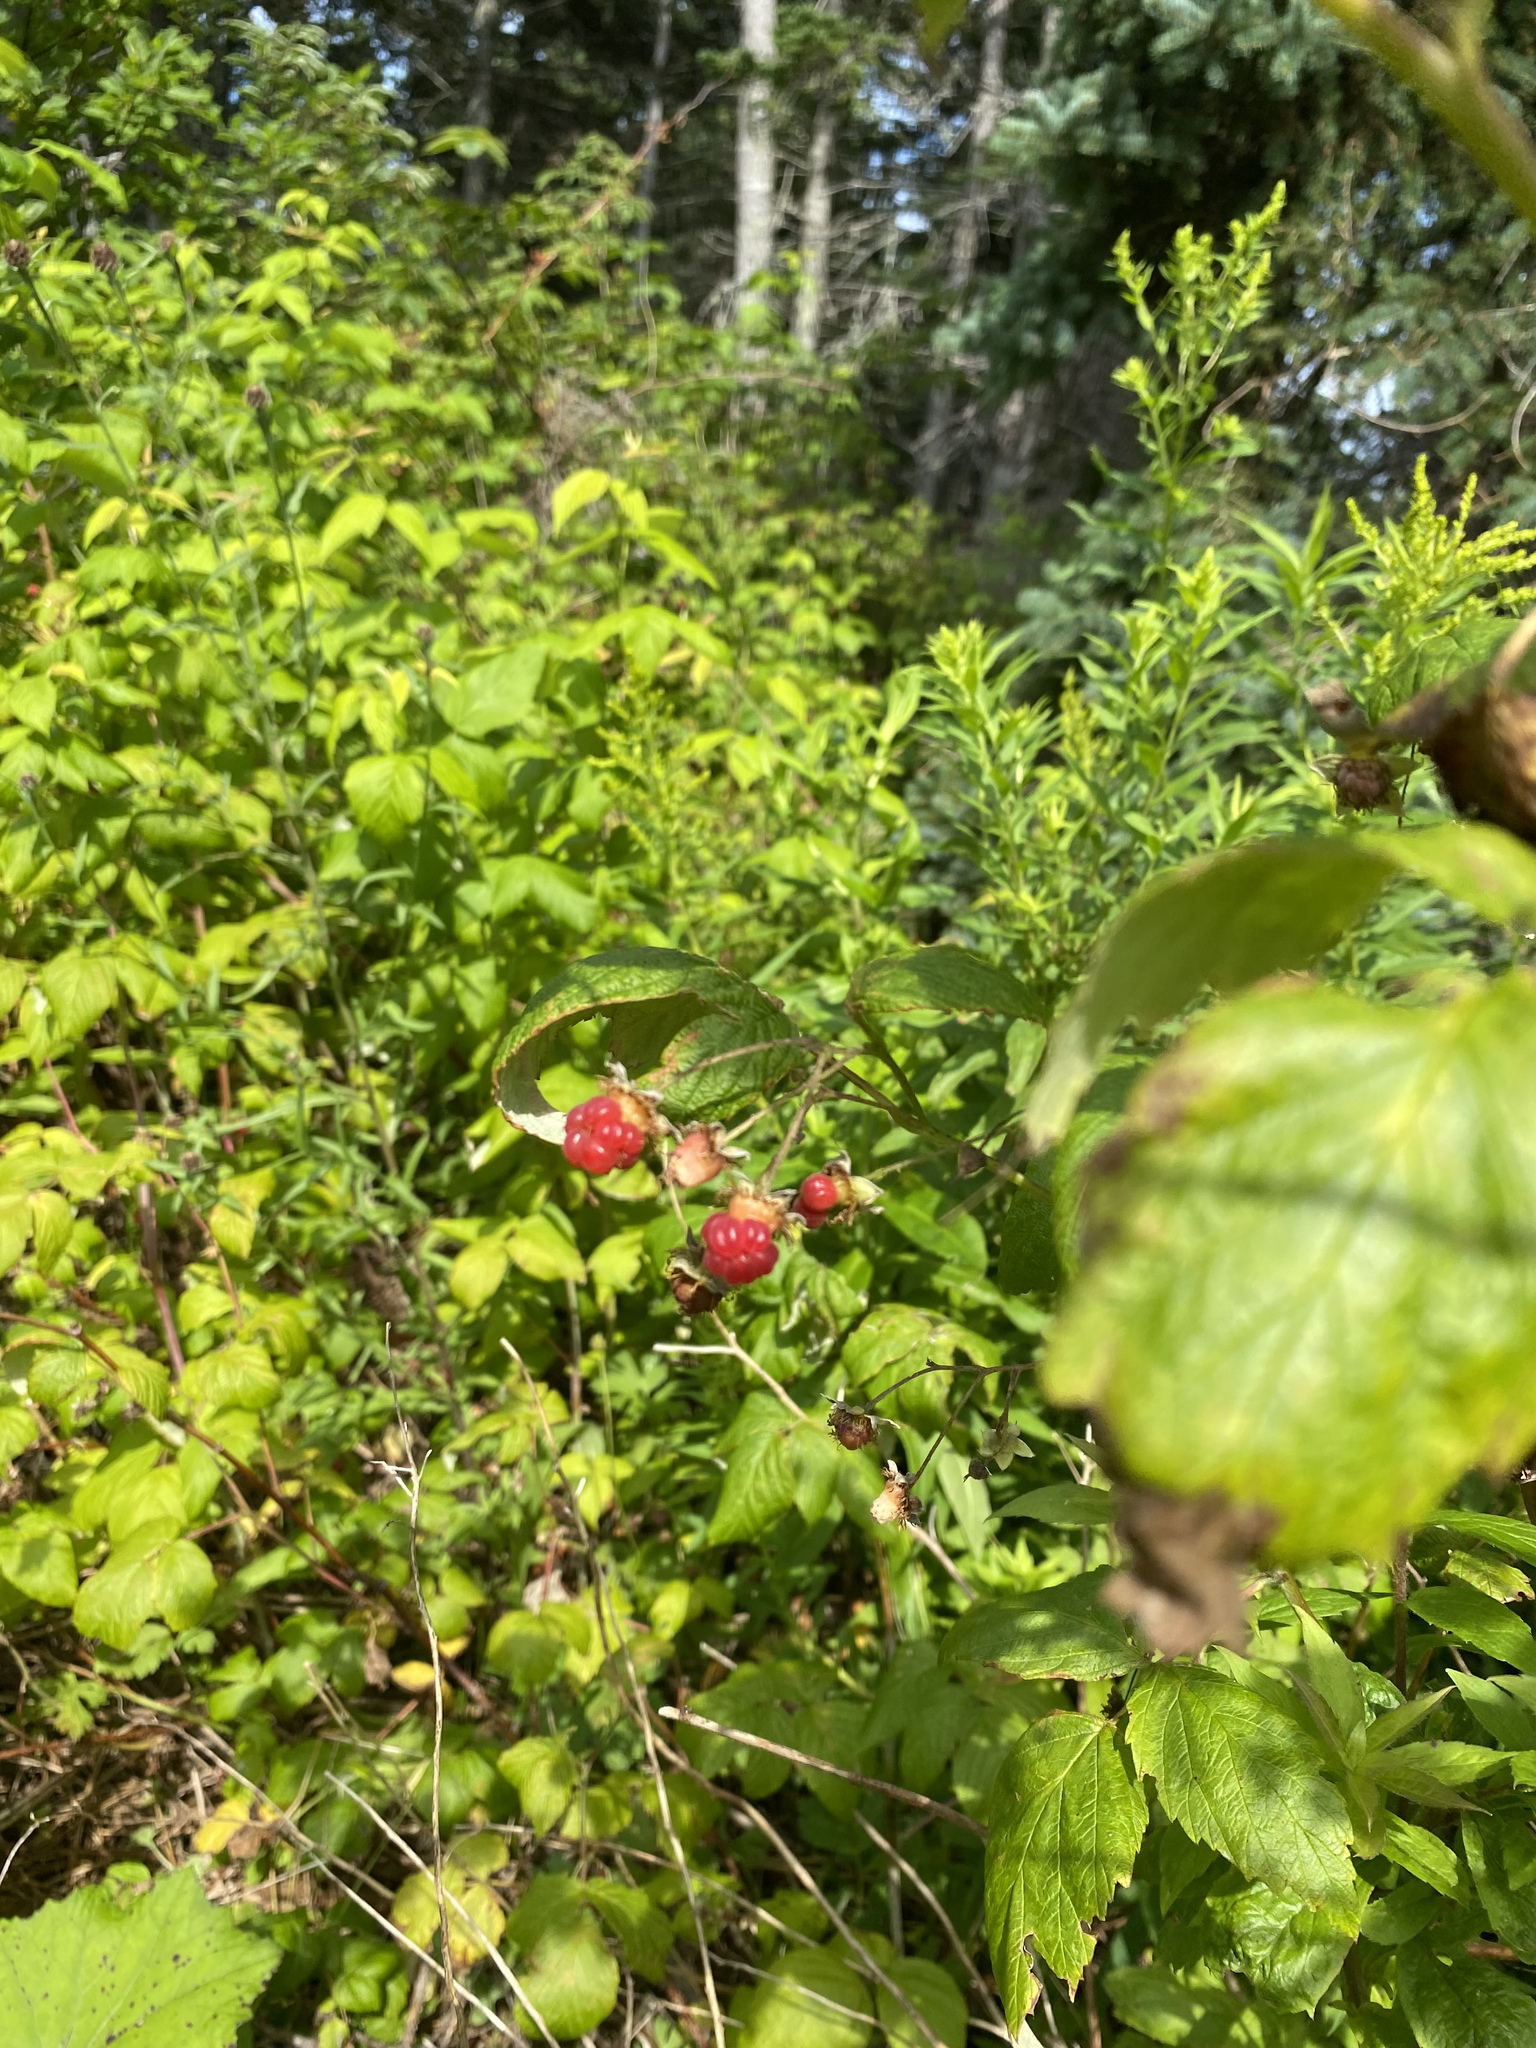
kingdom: Plantae
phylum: Tracheophyta
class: Magnoliopsida
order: Rosales
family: Rosaceae
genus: Rubus
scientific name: Rubus idaeus
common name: Raspberry
